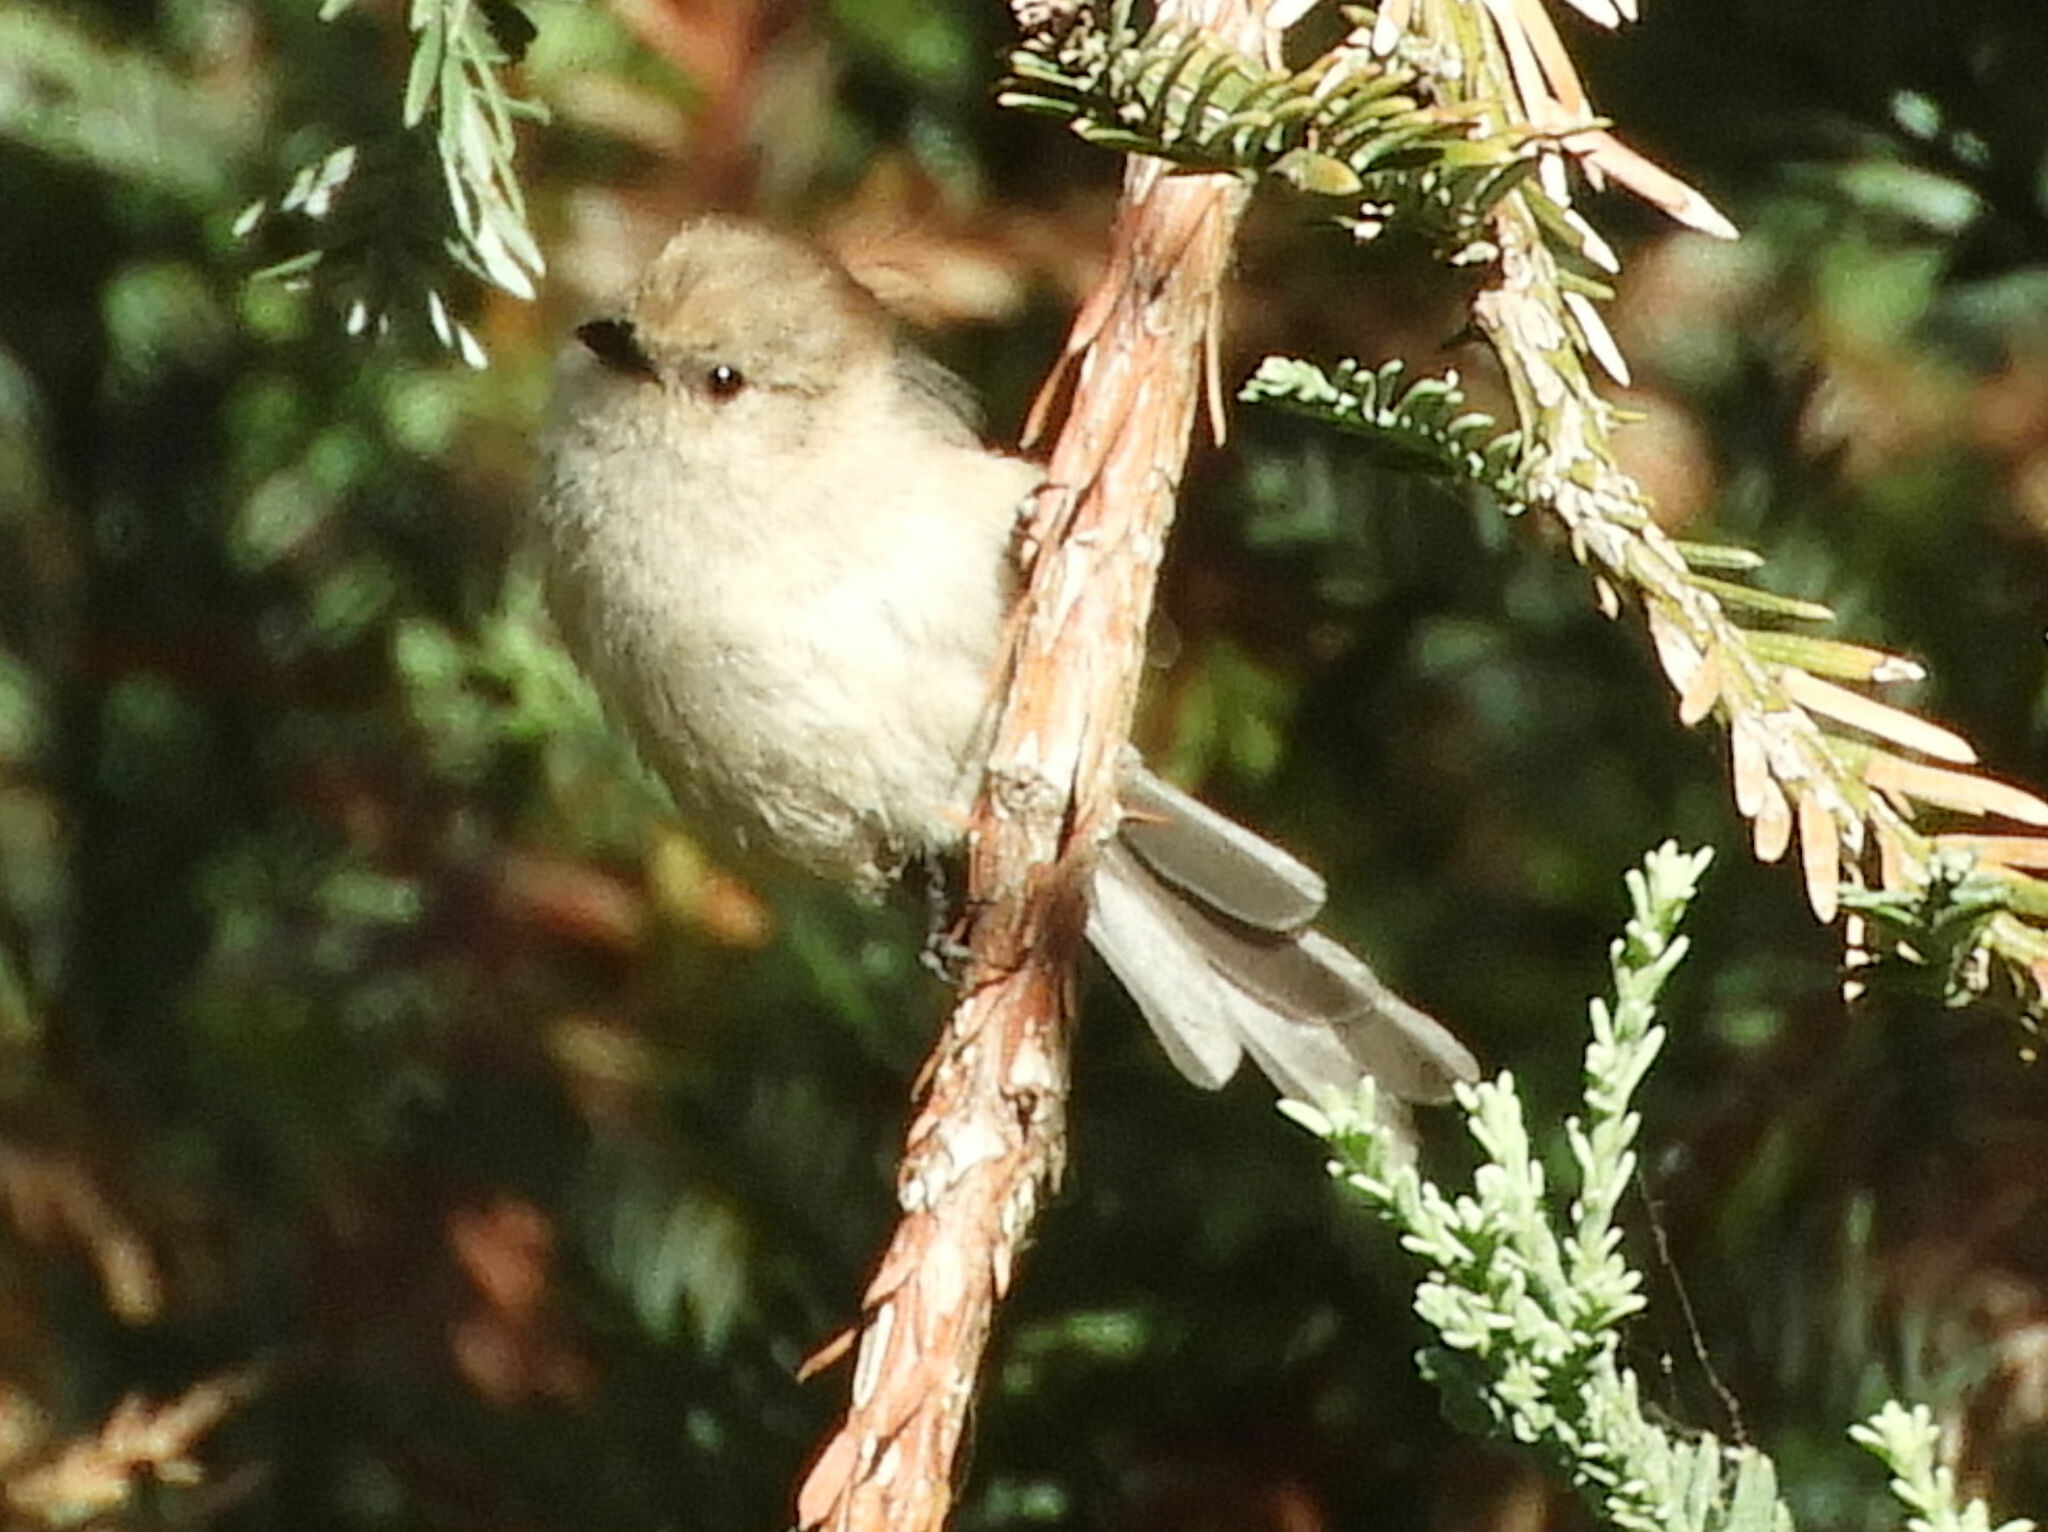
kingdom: Animalia
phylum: Chordata
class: Aves
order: Passeriformes
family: Aegithalidae
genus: Psaltriparus
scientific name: Psaltriparus minimus
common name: American bushtit
